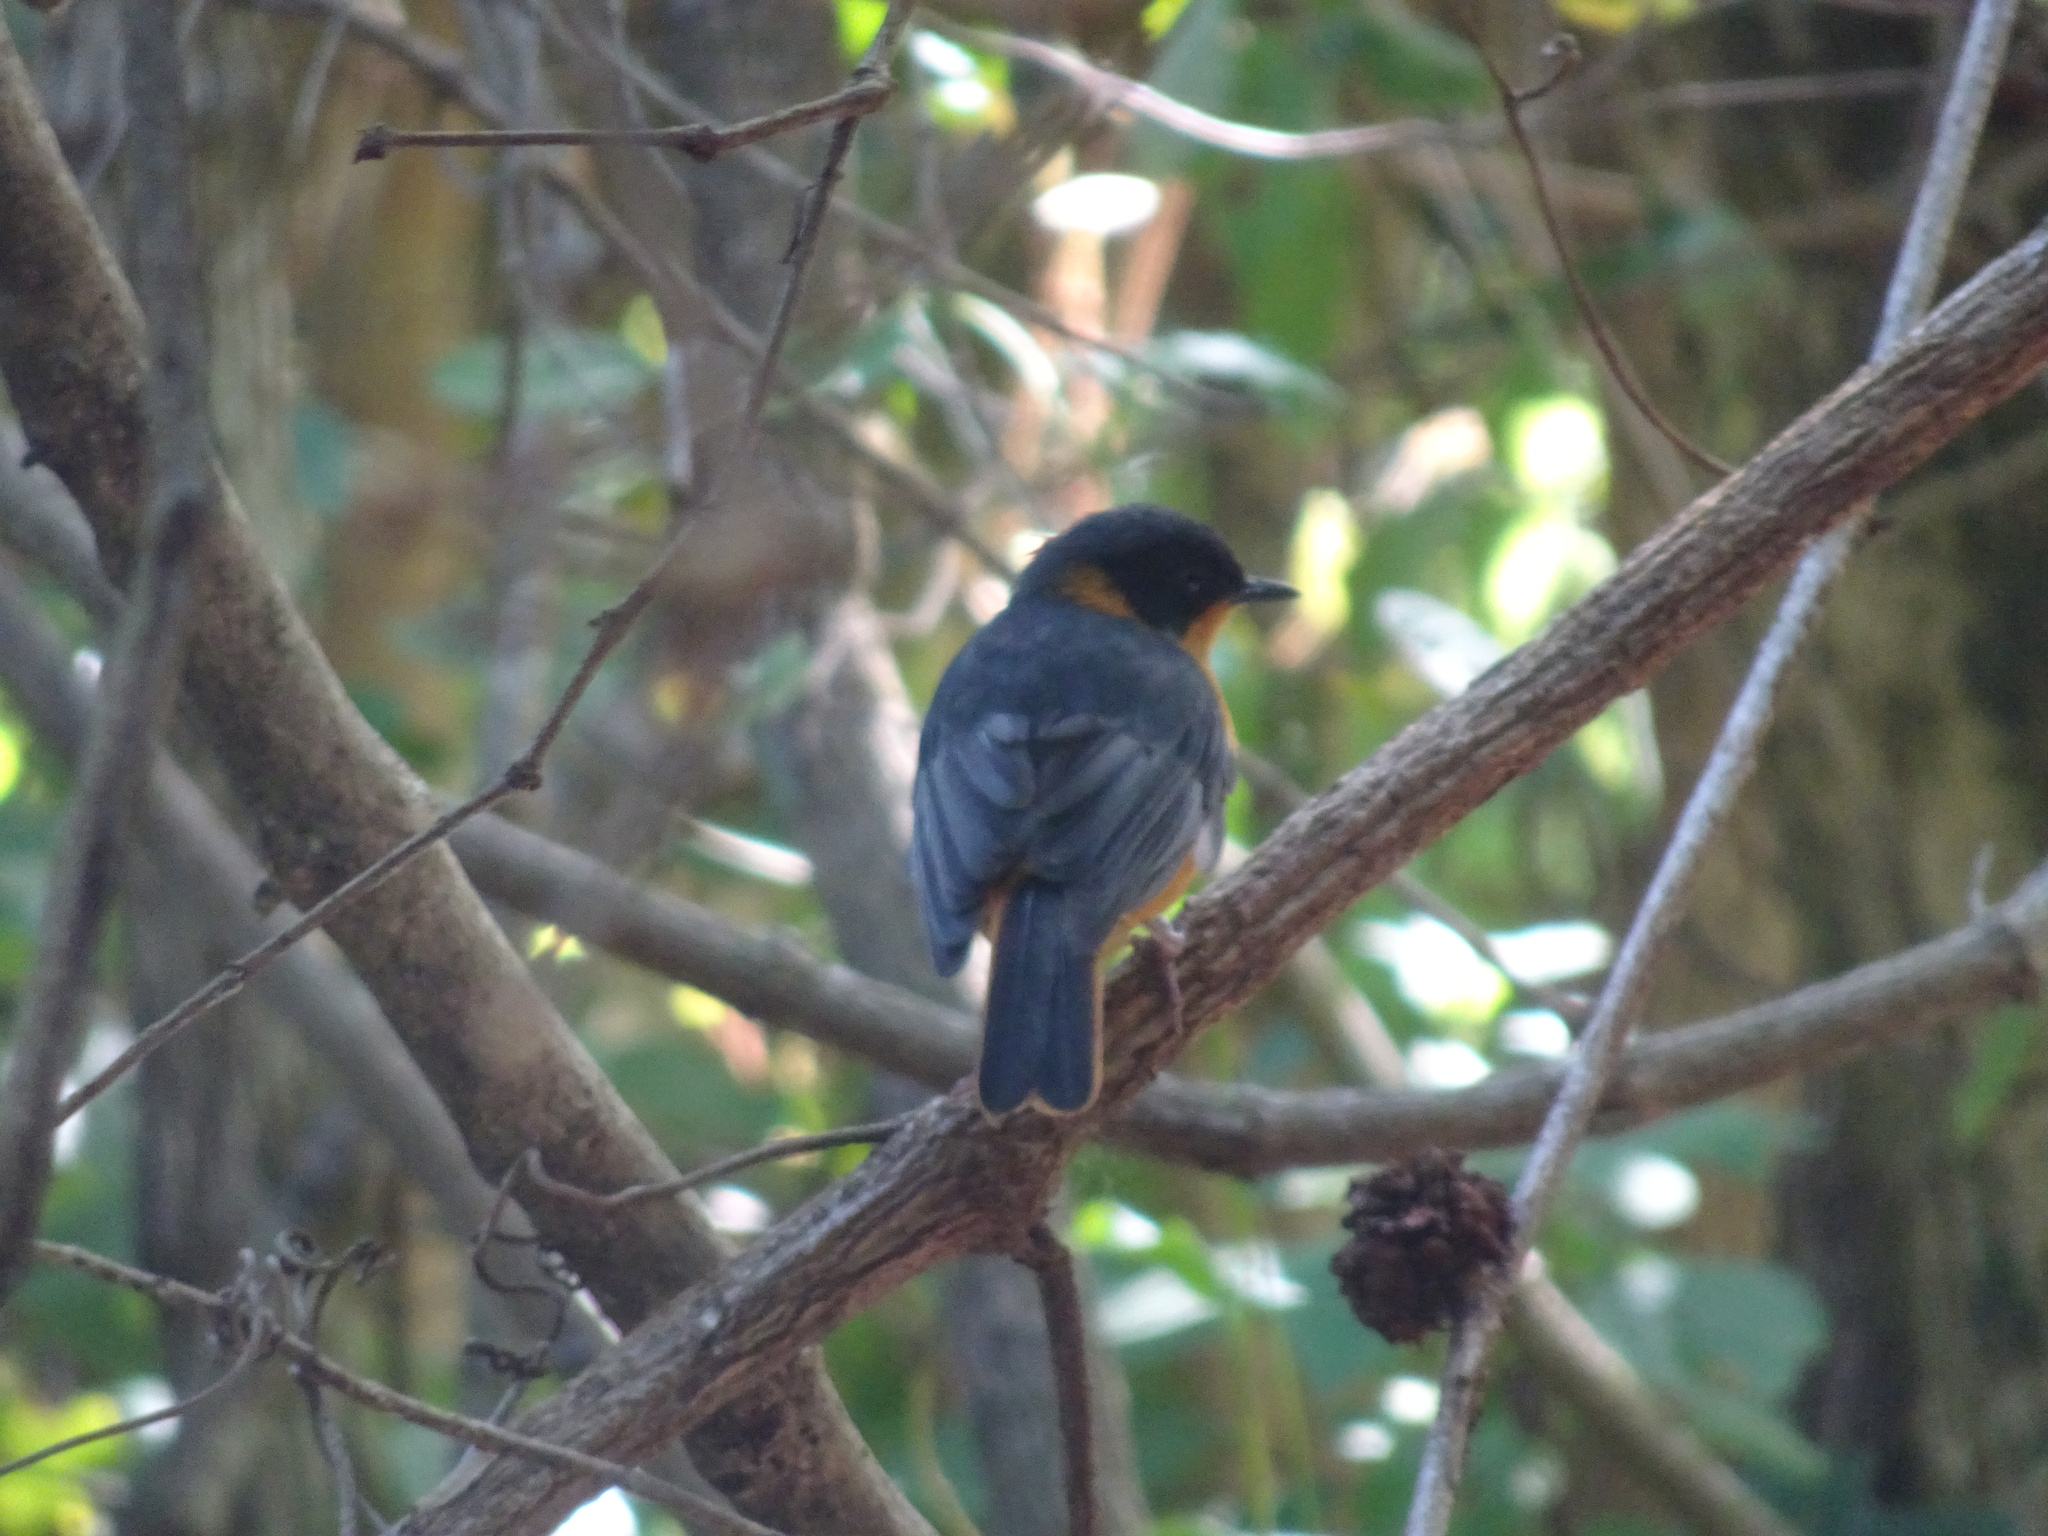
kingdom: Animalia
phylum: Chordata
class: Aves
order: Passeriformes
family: Muscicapidae
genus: Cossypha
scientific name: Cossypha dichroa
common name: Chorister robin-chat
